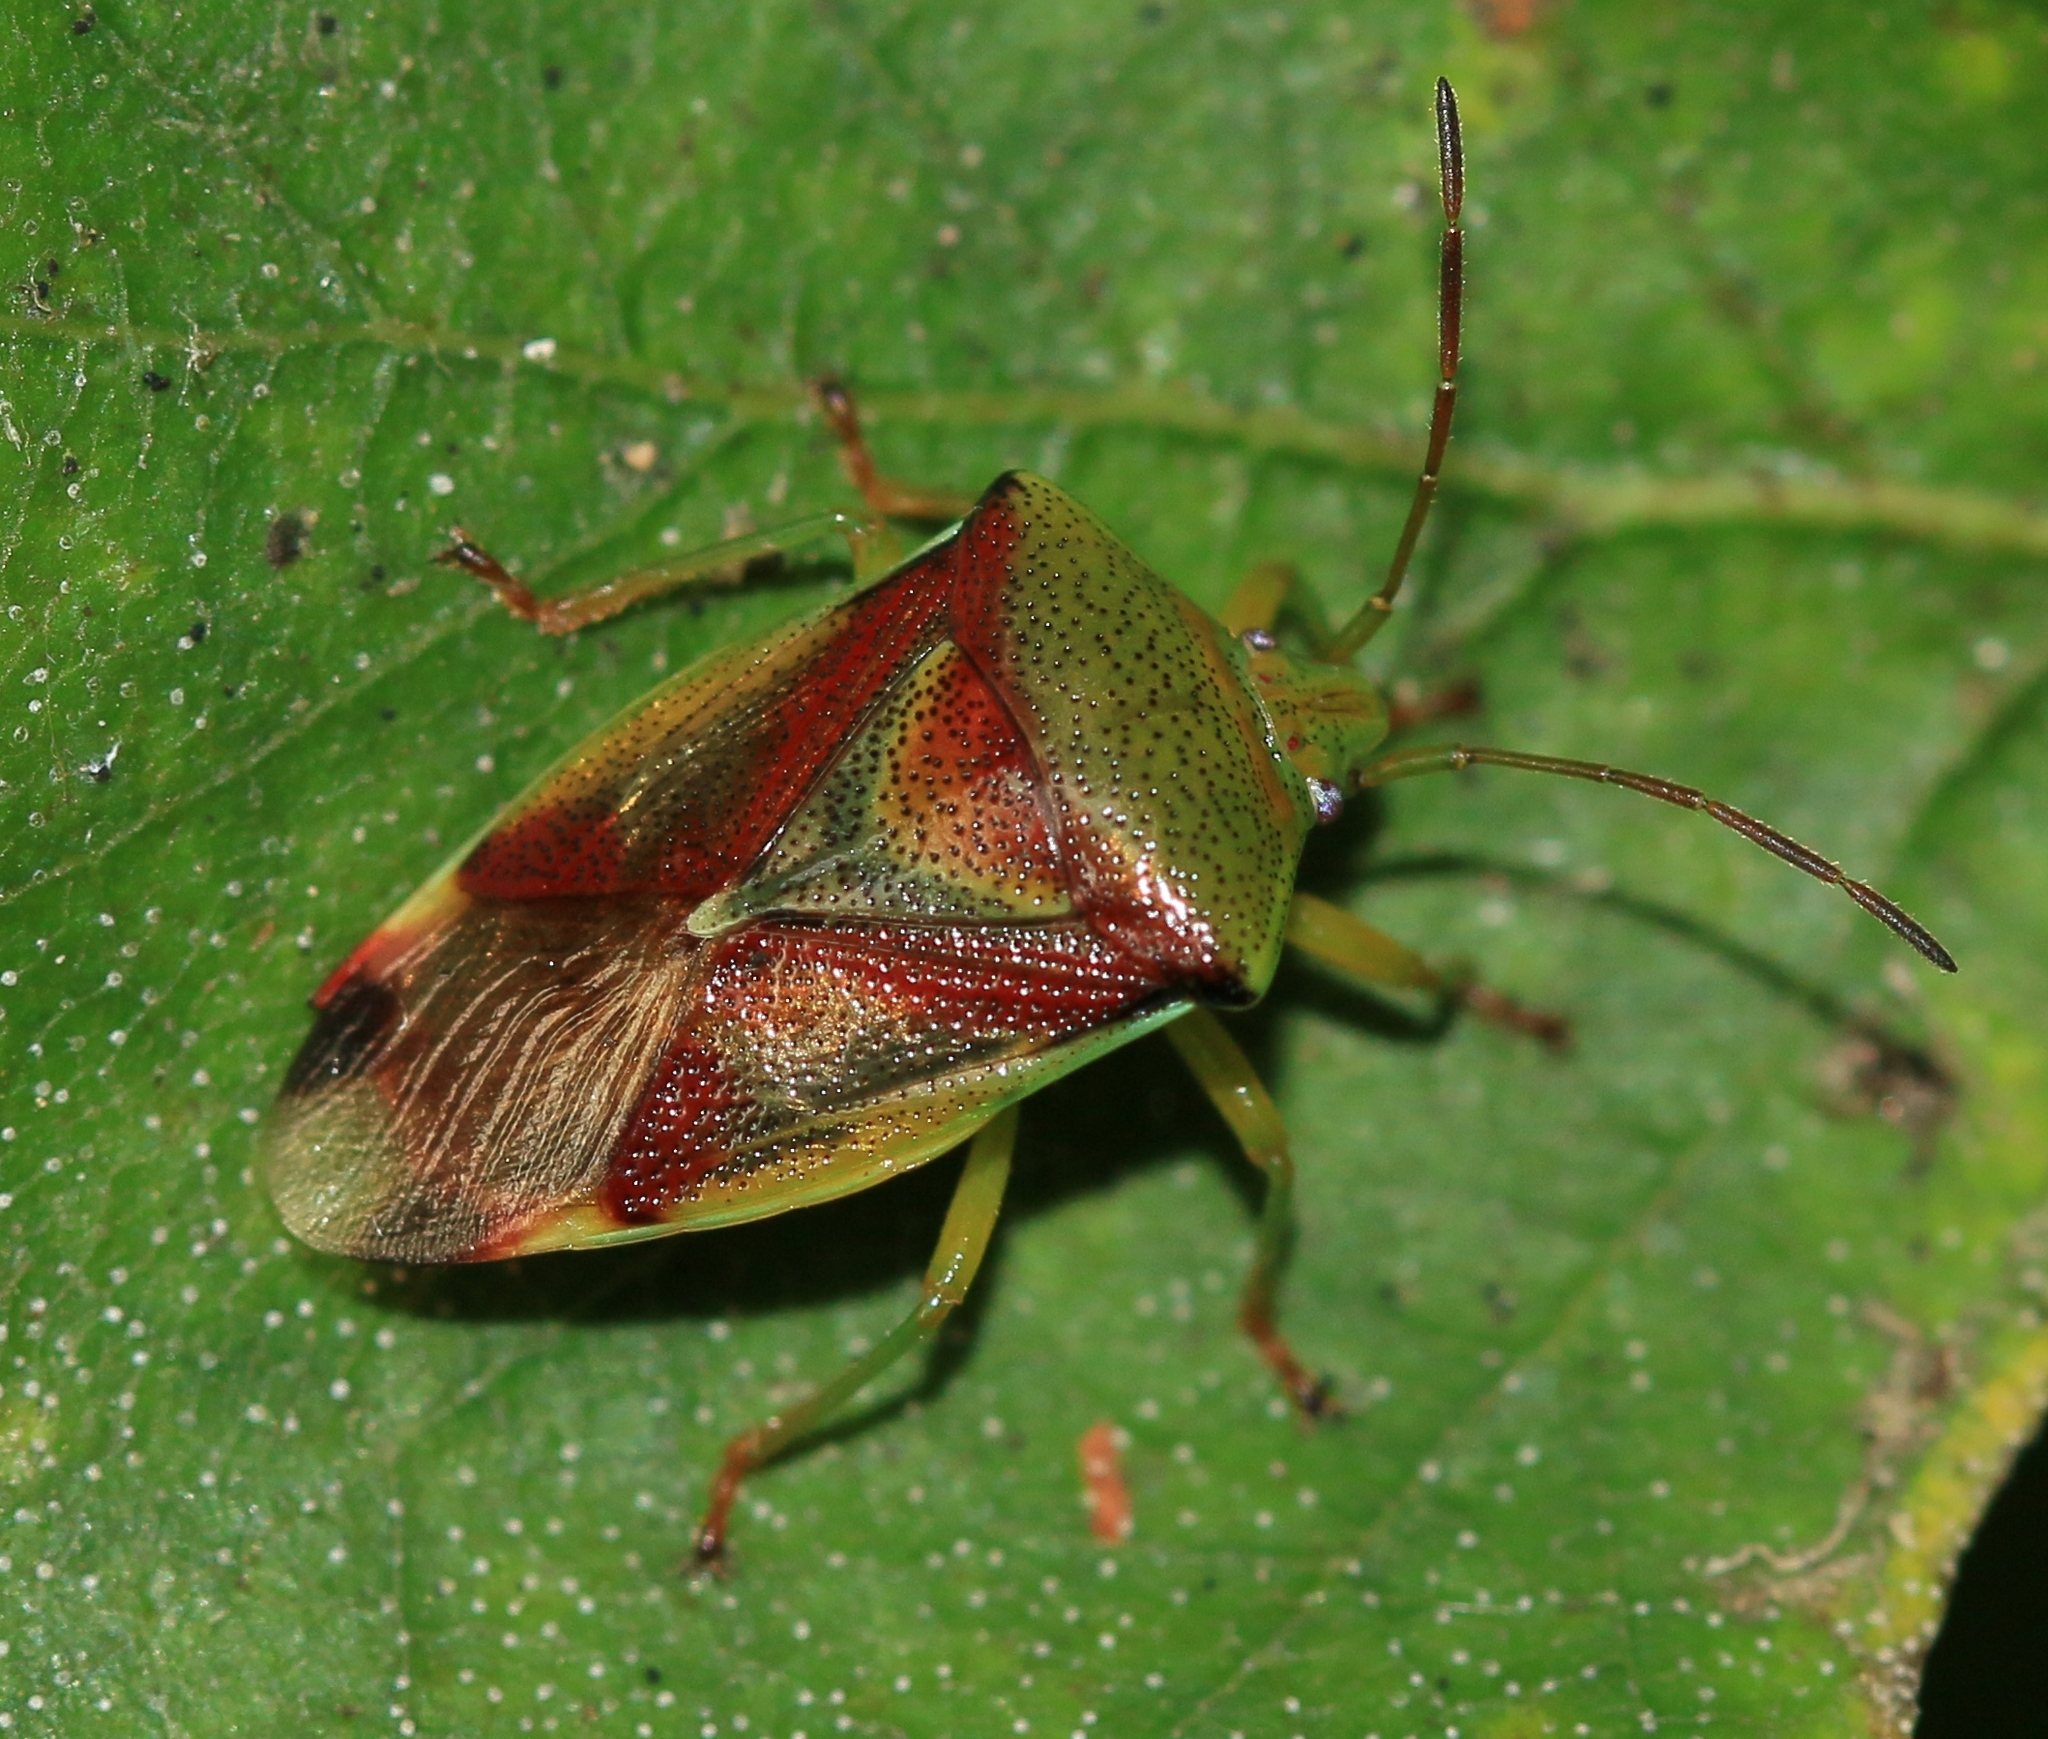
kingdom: Animalia
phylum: Arthropoda
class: Insecta
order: Hemiptera
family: Acanthosomatidae
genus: Elasmostethus
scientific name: Elasmostethus interstinctus
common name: Birch shieldbug
